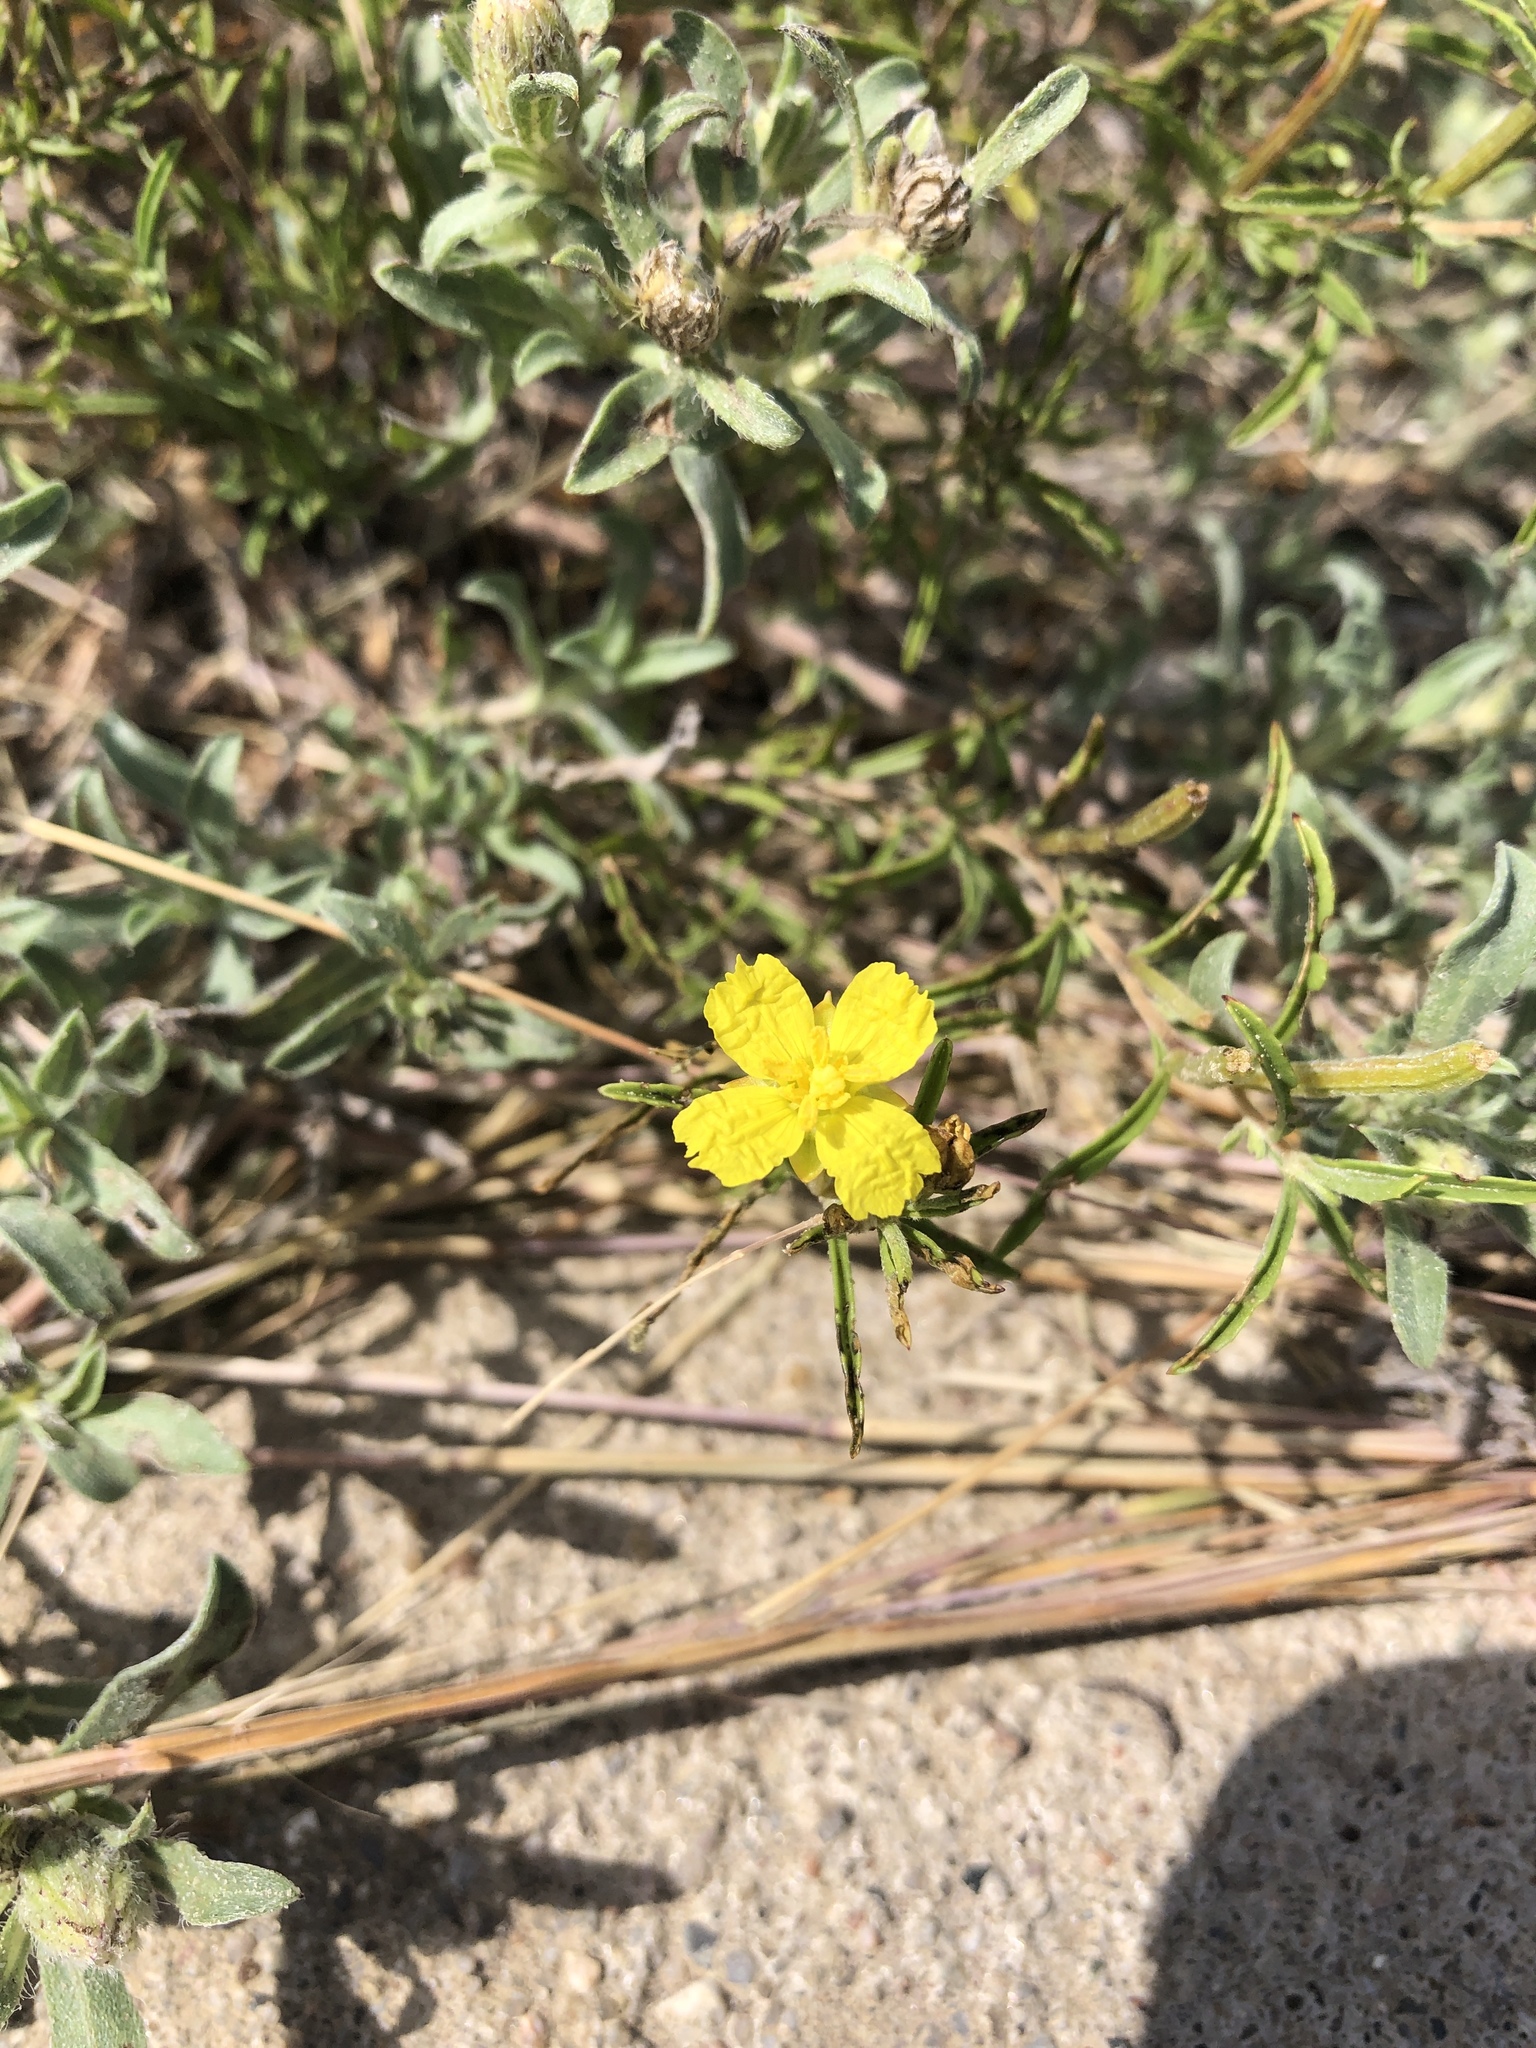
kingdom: Plantae
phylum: Tracheophyta
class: Magnoliopsida
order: Myrtales
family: Onagraceae
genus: Oenothera
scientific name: Oenothera serrulata
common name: Half-shrub calylophus
